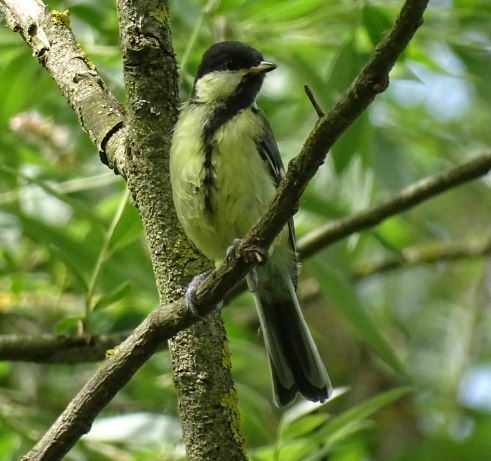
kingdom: Animalia
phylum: Chordata
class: Aves
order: Passeriformes
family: Paridae
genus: Parus
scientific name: Parus major
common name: Great tit
